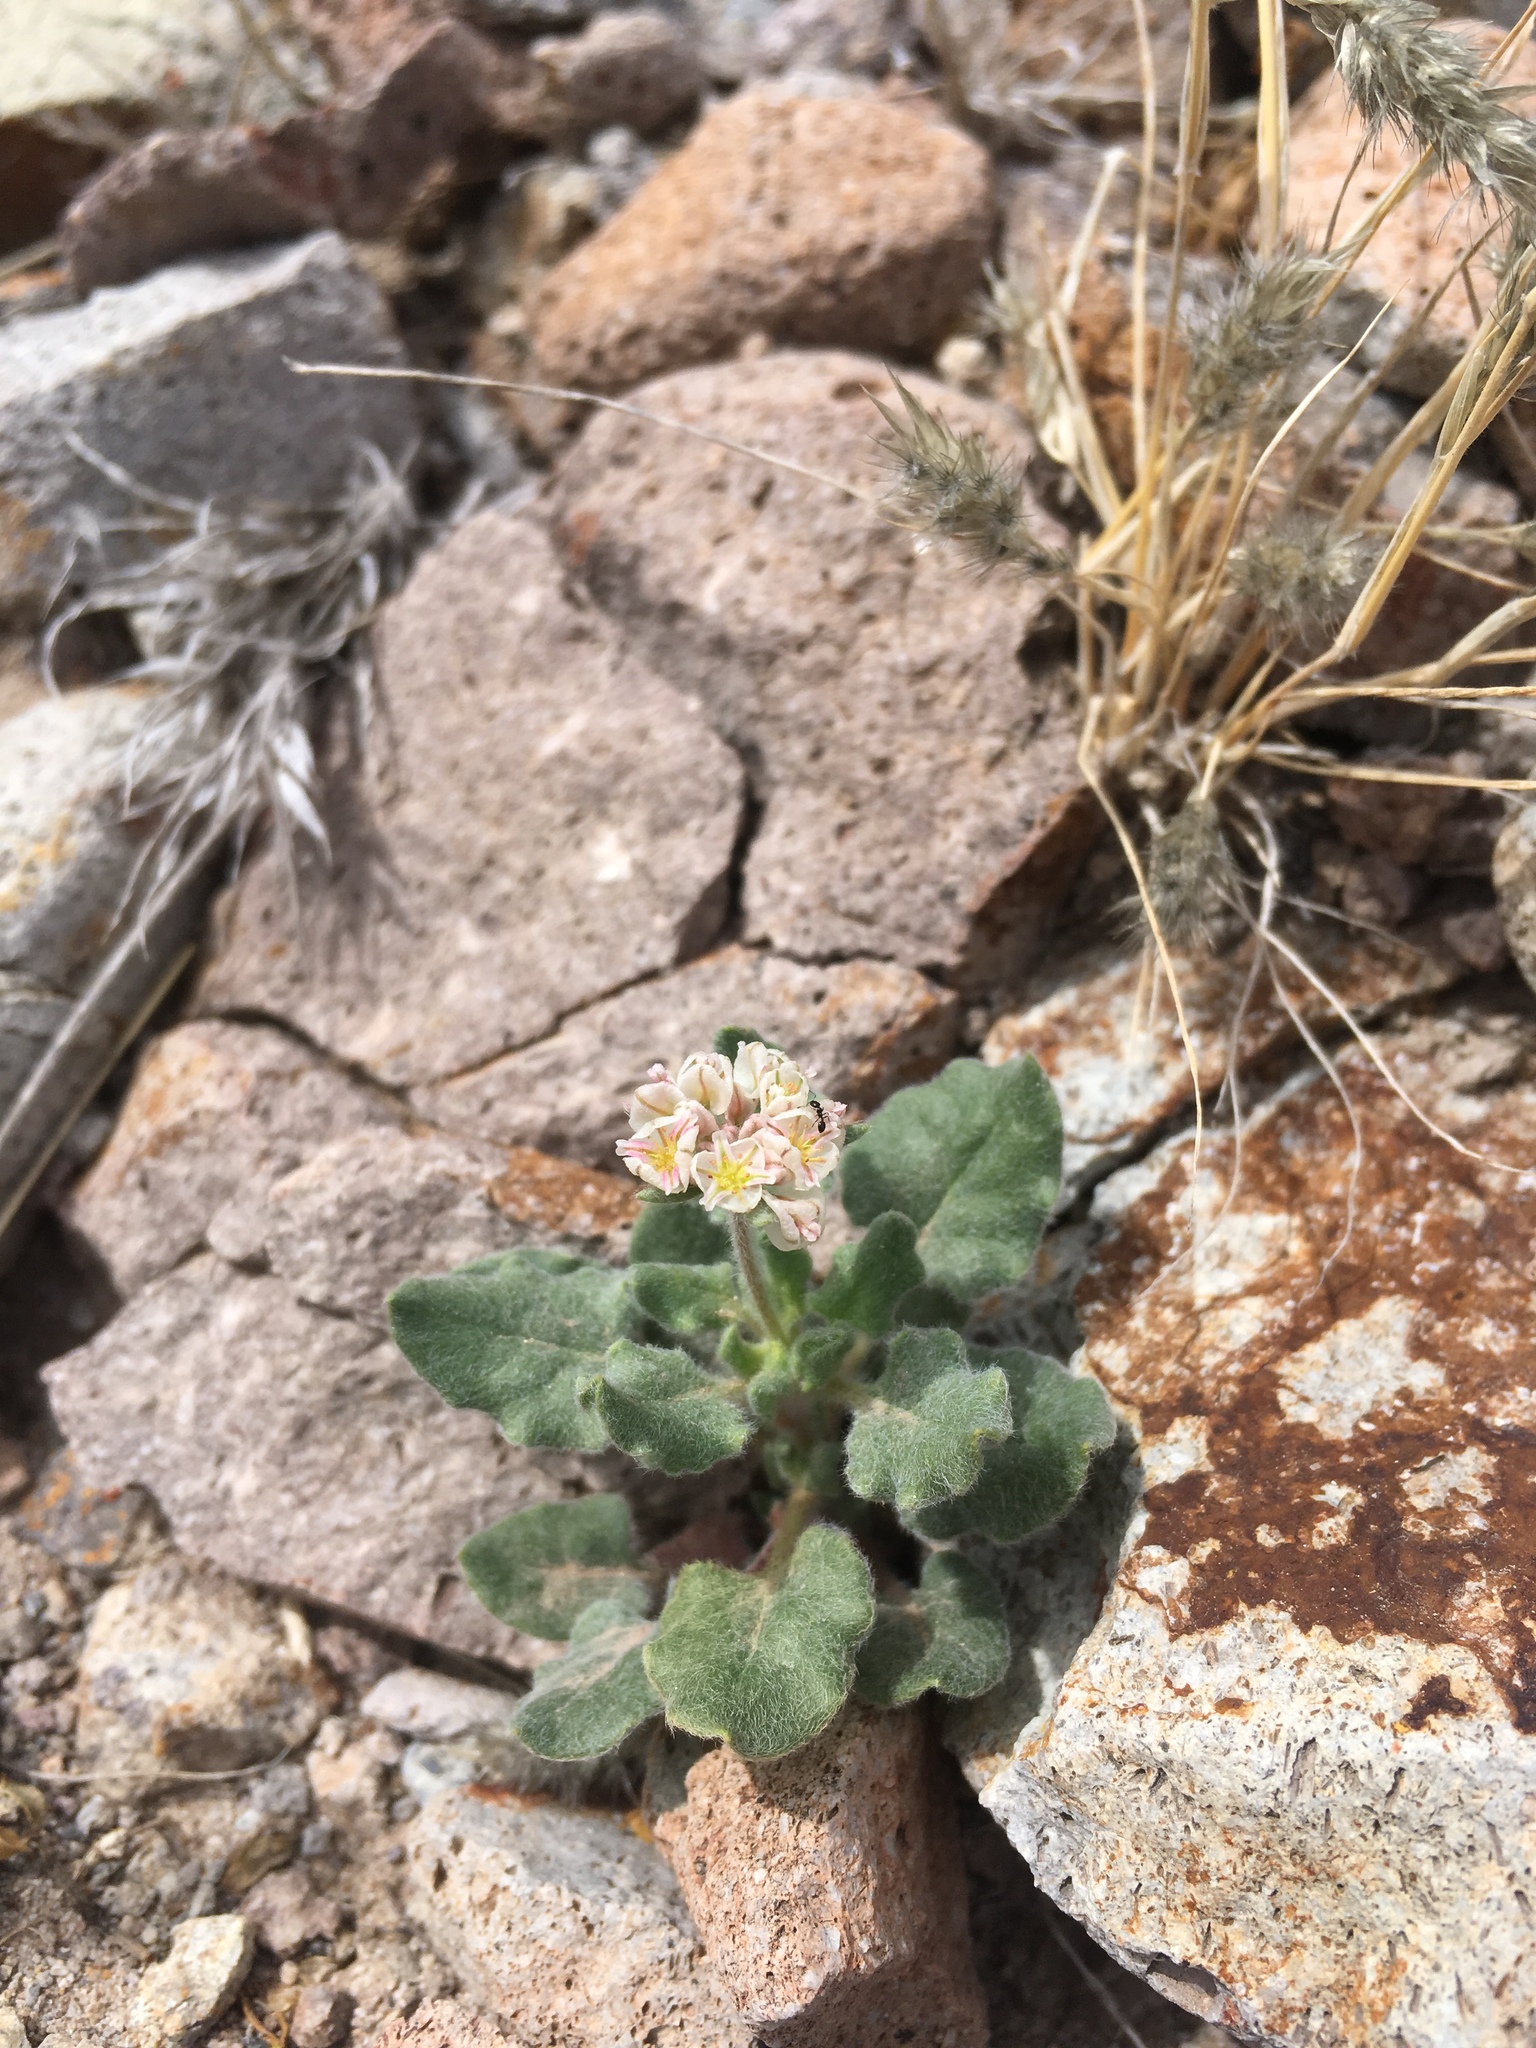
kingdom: Plantae
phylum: Tracheophyta
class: Magnoliopsida
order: Caryophyllales
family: Polygonaceae
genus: Eriogonum
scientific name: Eriogonum abertianum
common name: Abert's wild buckwheat
